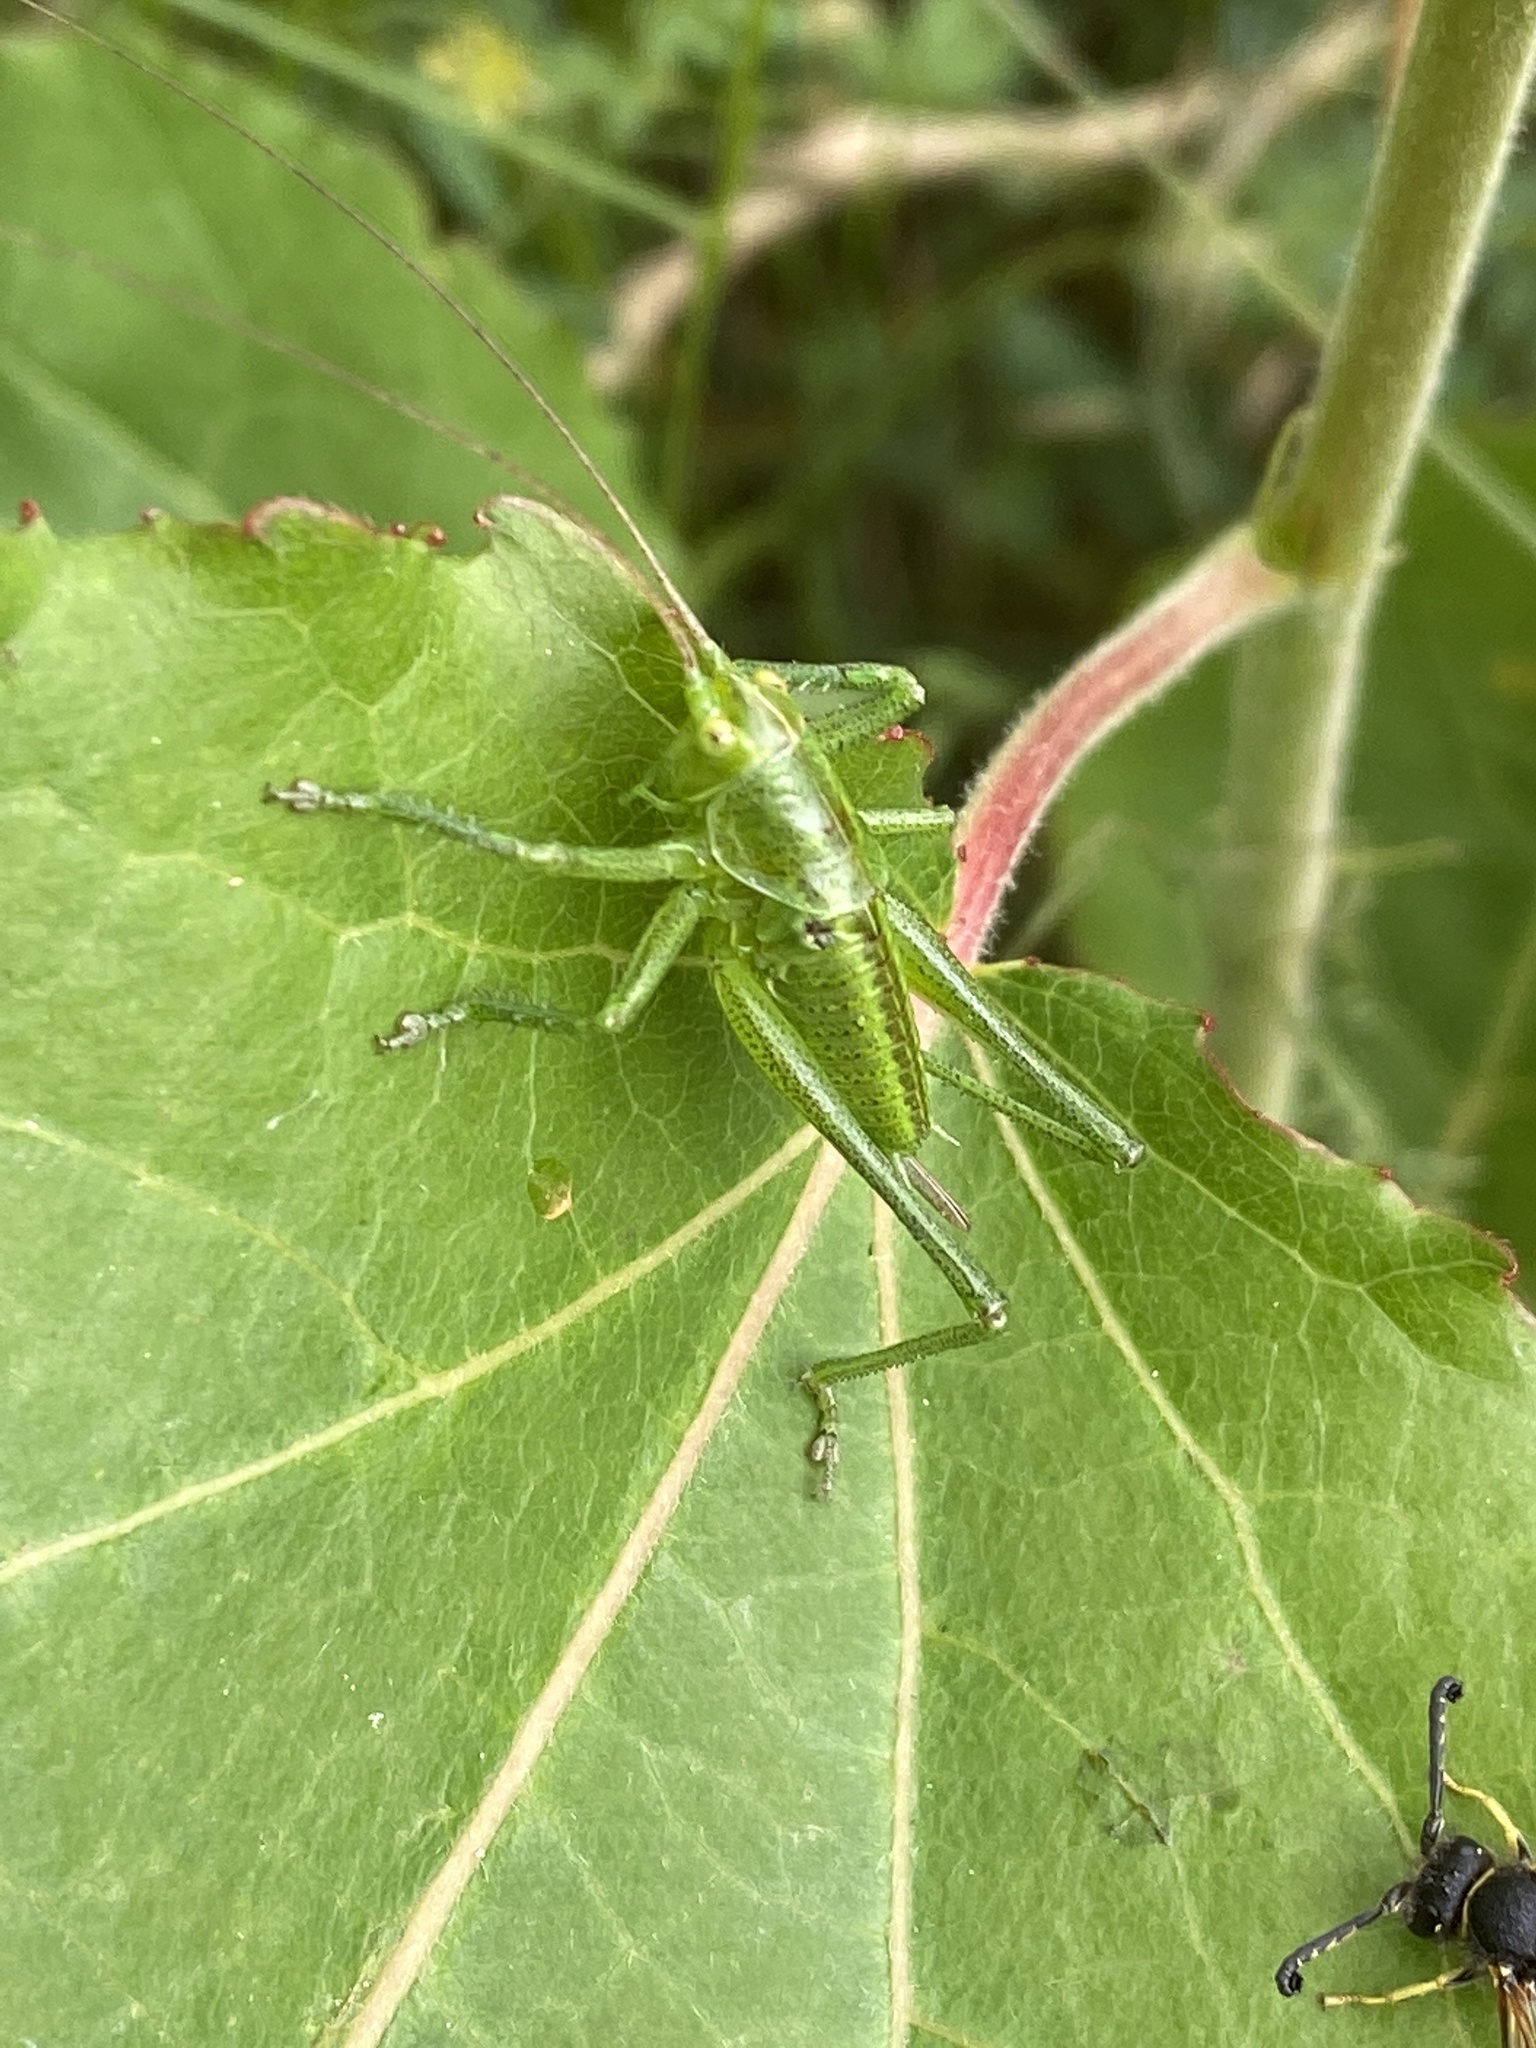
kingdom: Animalia
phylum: Arthropoda
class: Insecta
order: Orthoptera
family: Tettigoniidae
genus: Tettigonia
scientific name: Tettigonia viridissima
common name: Great green bush-cricket
